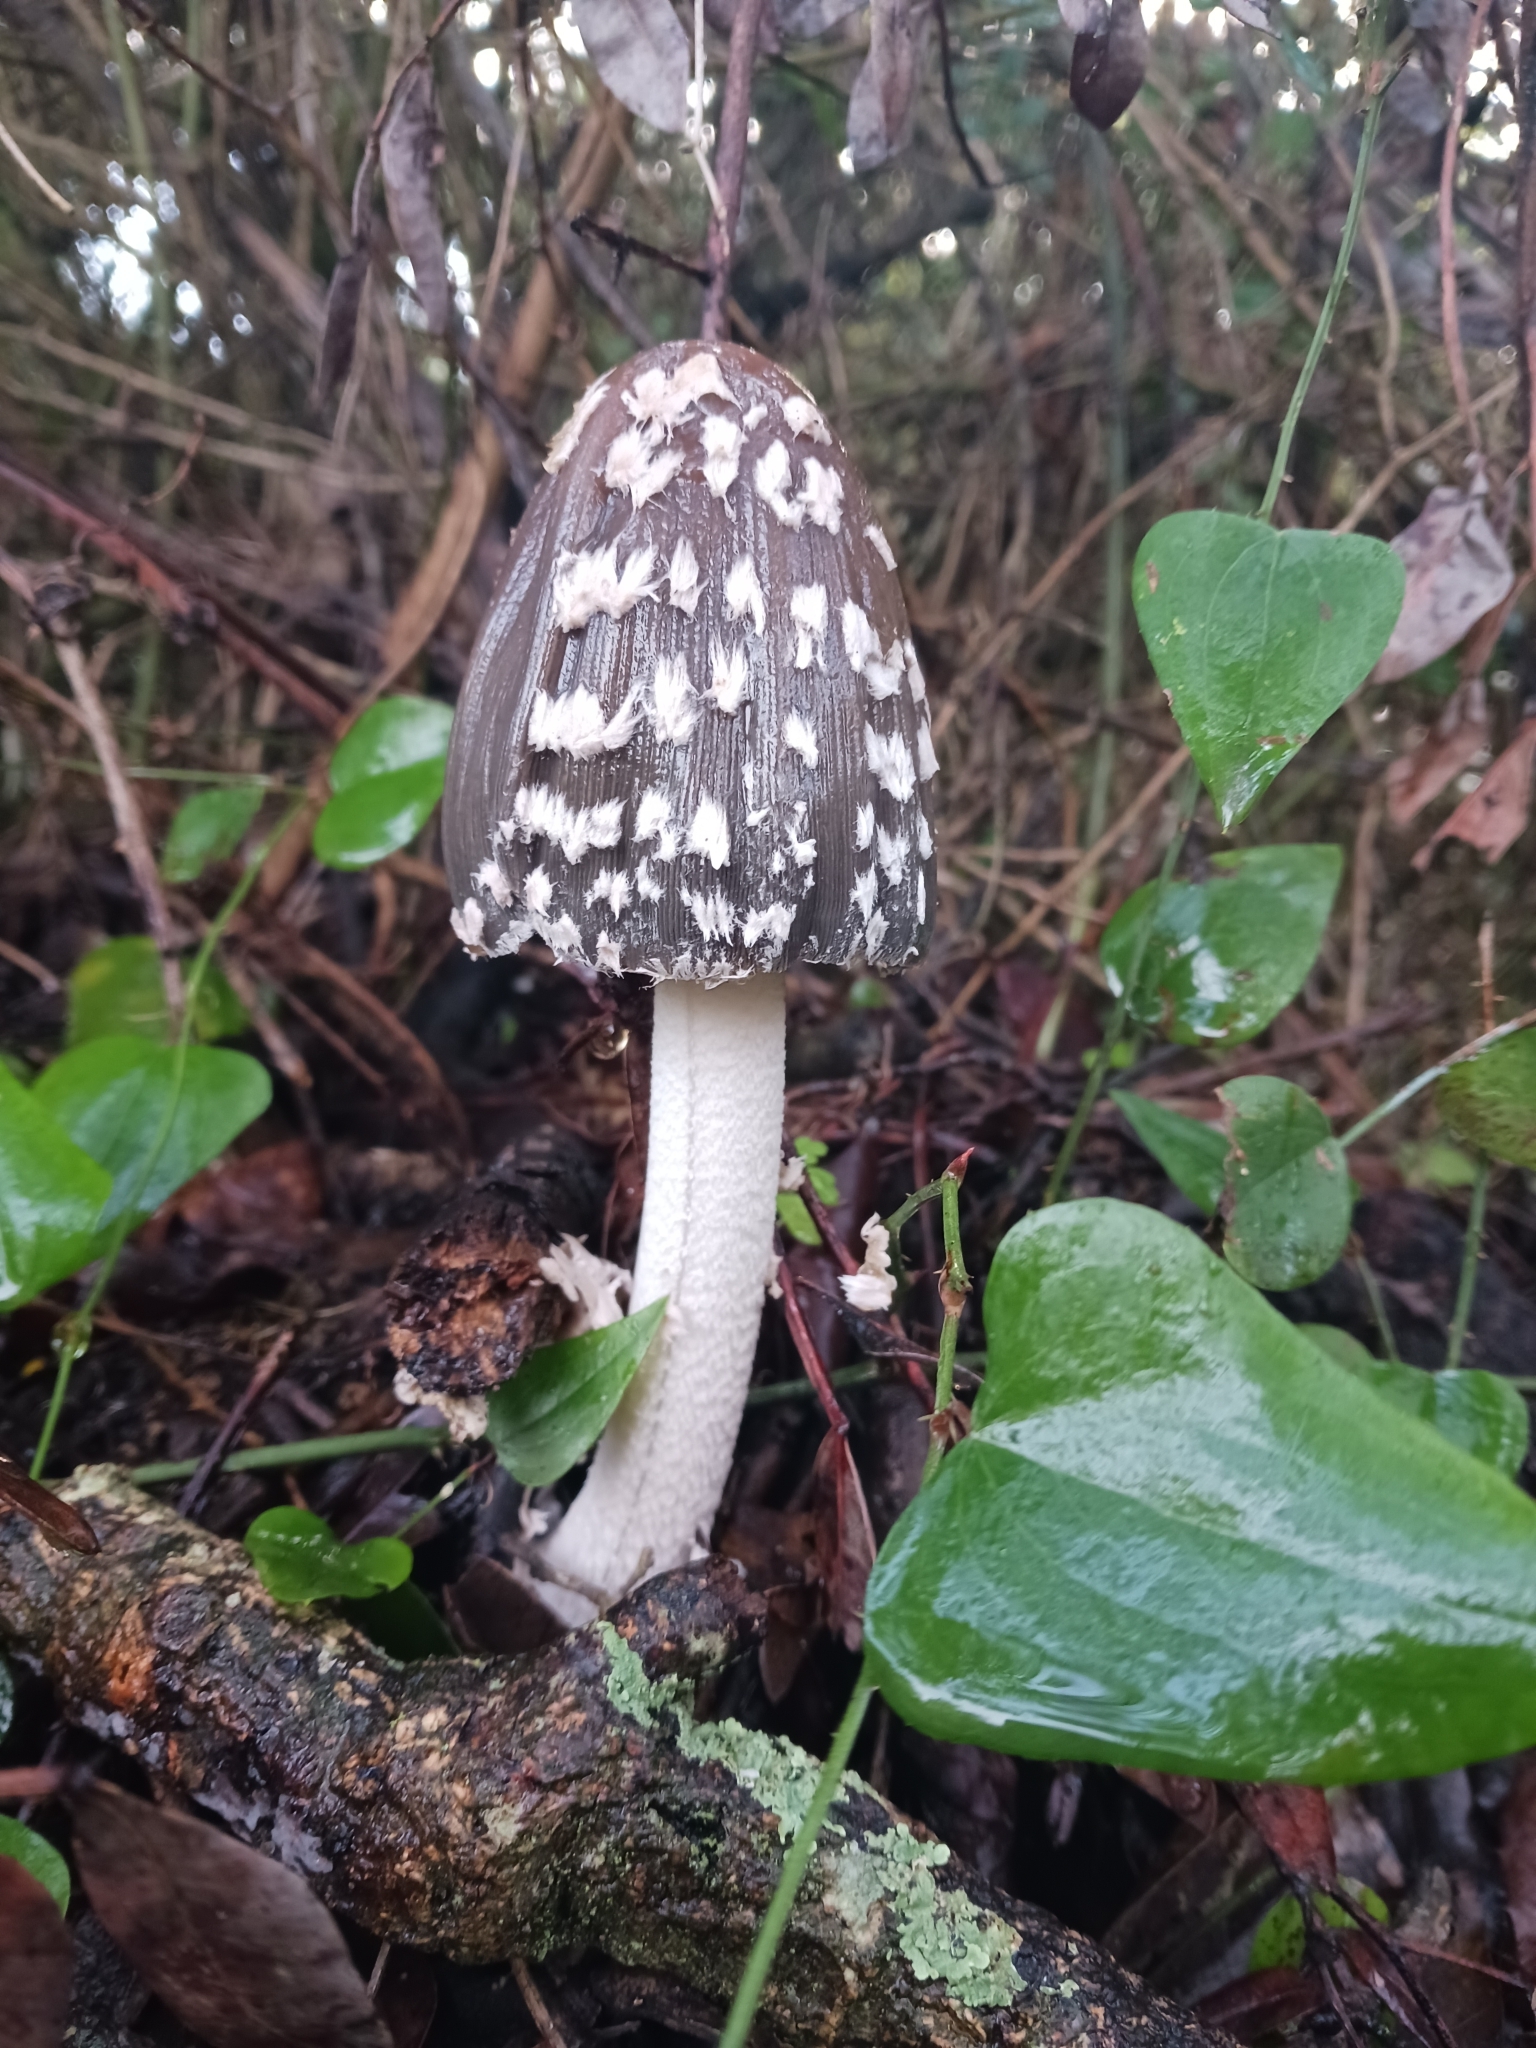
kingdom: Fungi
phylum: Basidiomycota
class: Agaricomycetes
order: Agaricales
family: Psathyrellaceae
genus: Coprinopsis
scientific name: Coprinopsis picacea
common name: Magpie inkcap
